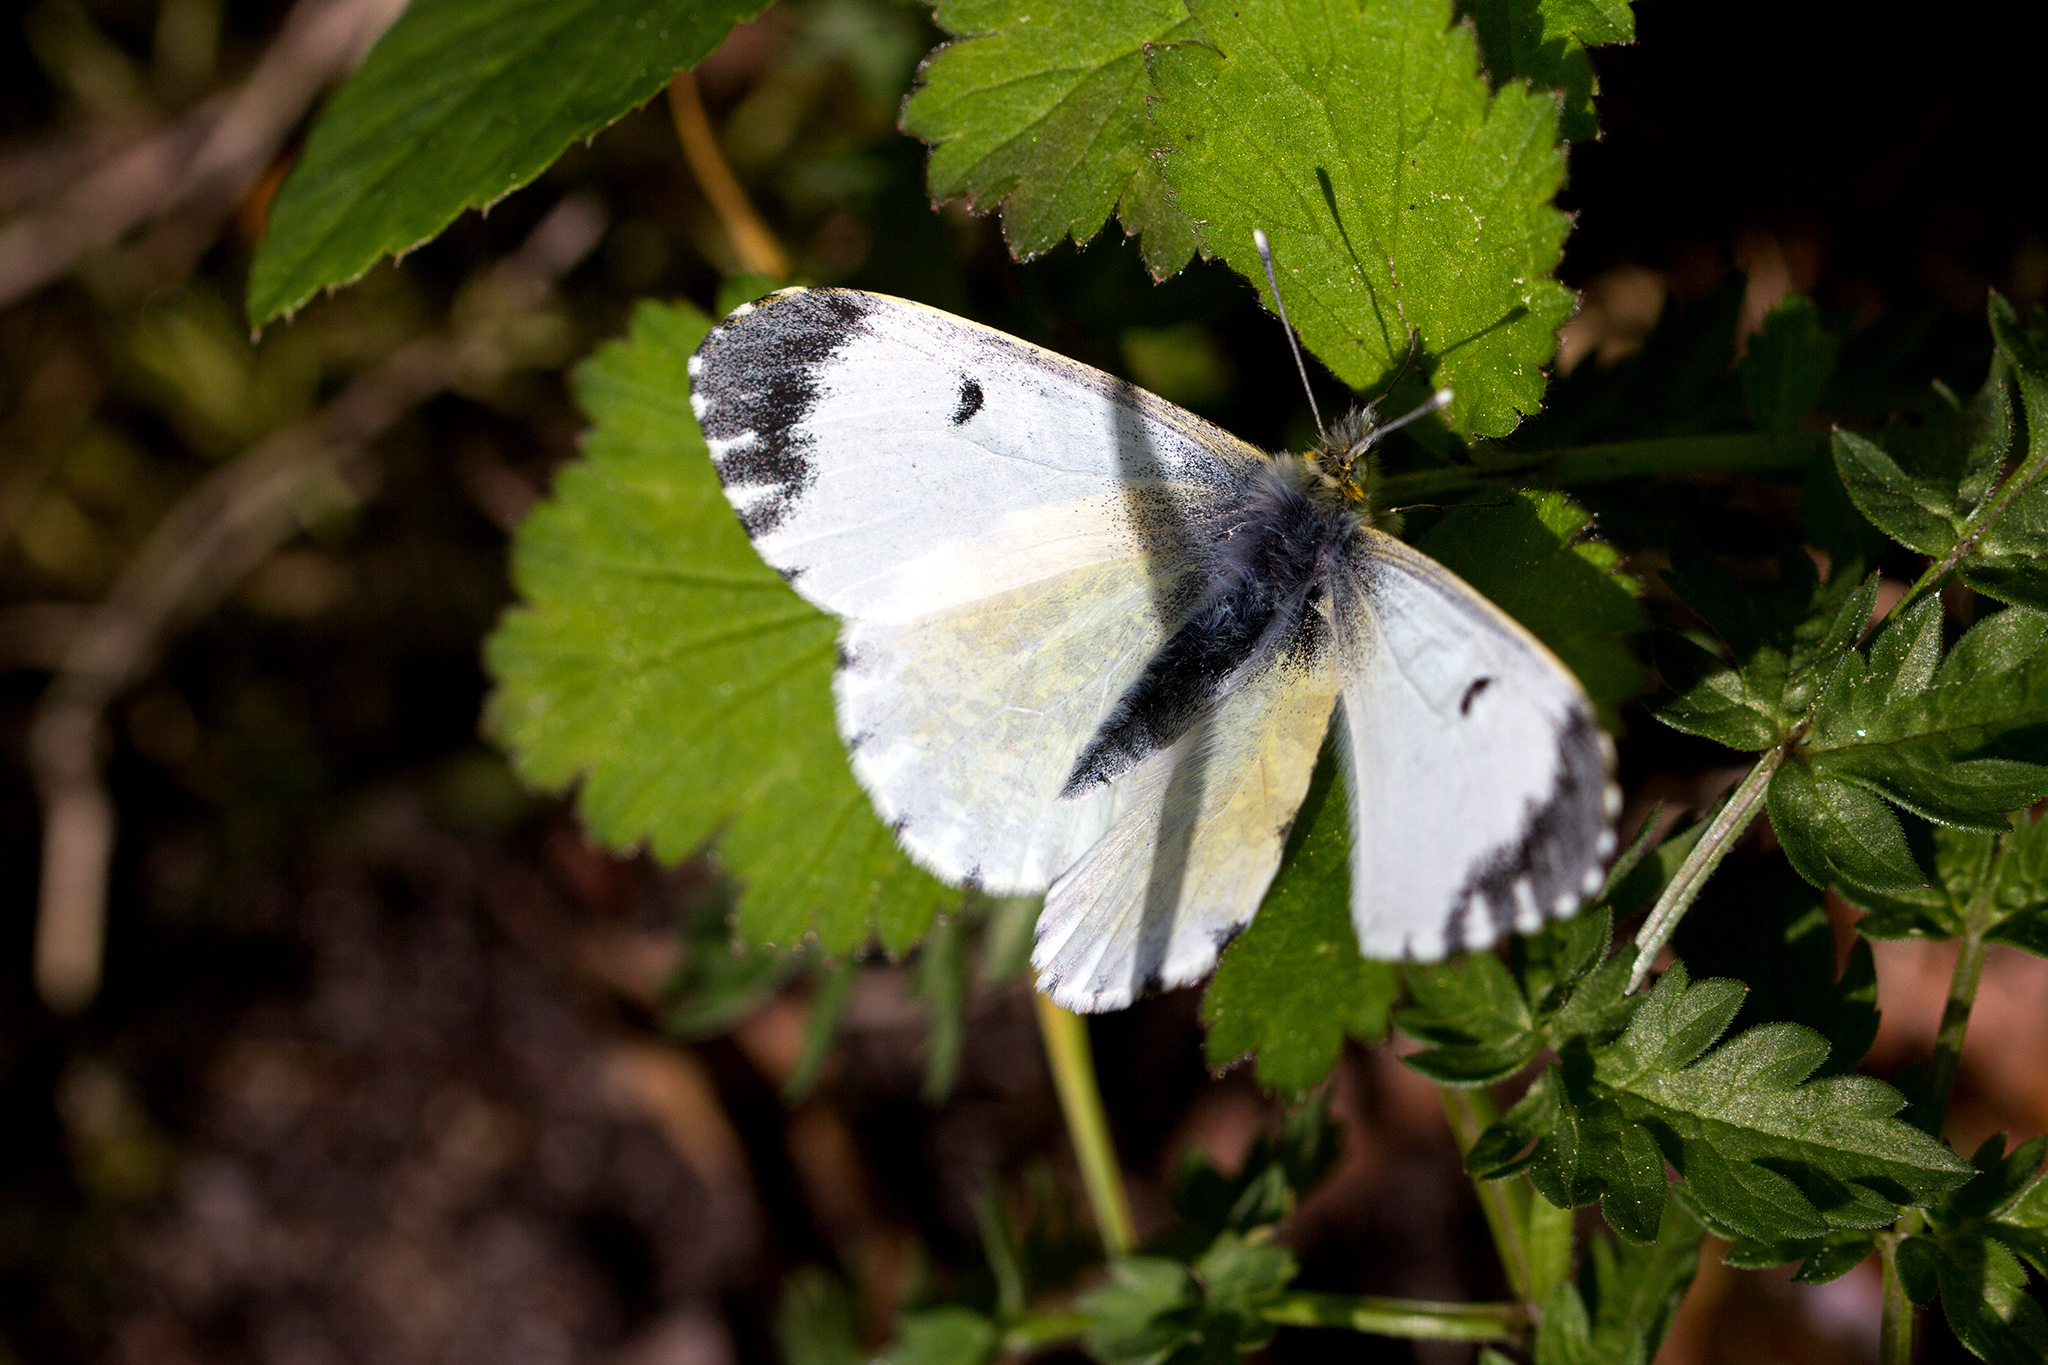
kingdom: Animalia
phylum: Arthropoda
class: Insecta
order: Lepidoptera
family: Pieridae
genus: Anthocharis
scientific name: Anthocharis cardamines
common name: Orange-tip
